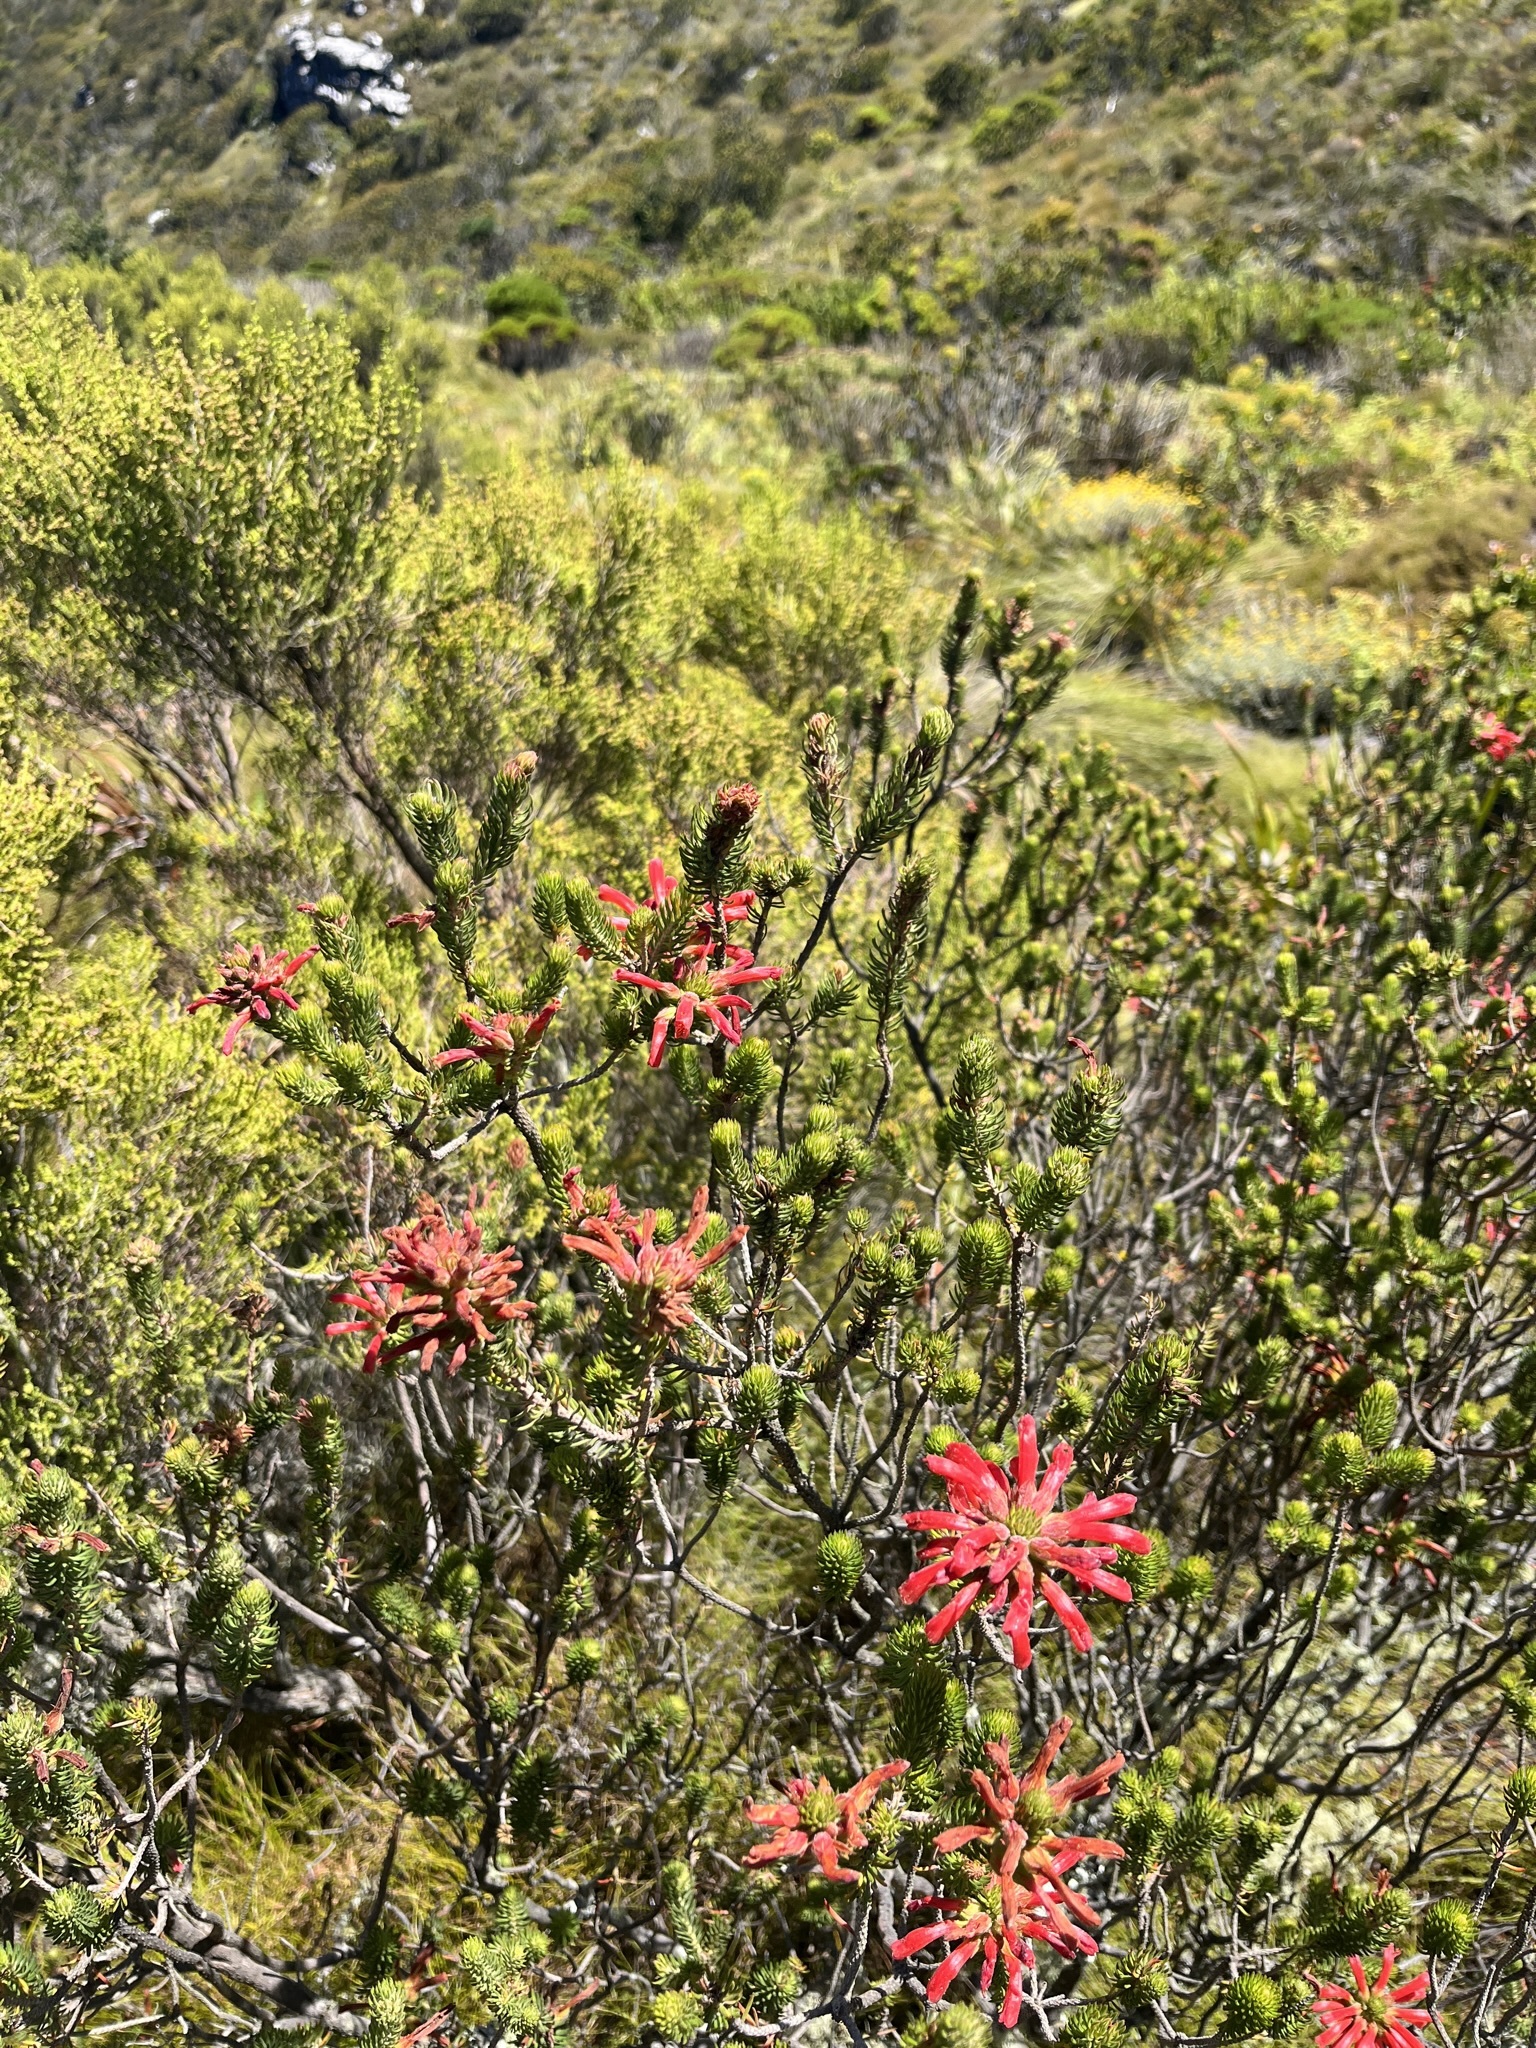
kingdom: Plantae
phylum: Tracheophyta
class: Magnoliopsida
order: Ericales
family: Ericaceae
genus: Erica
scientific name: Erica abietina
